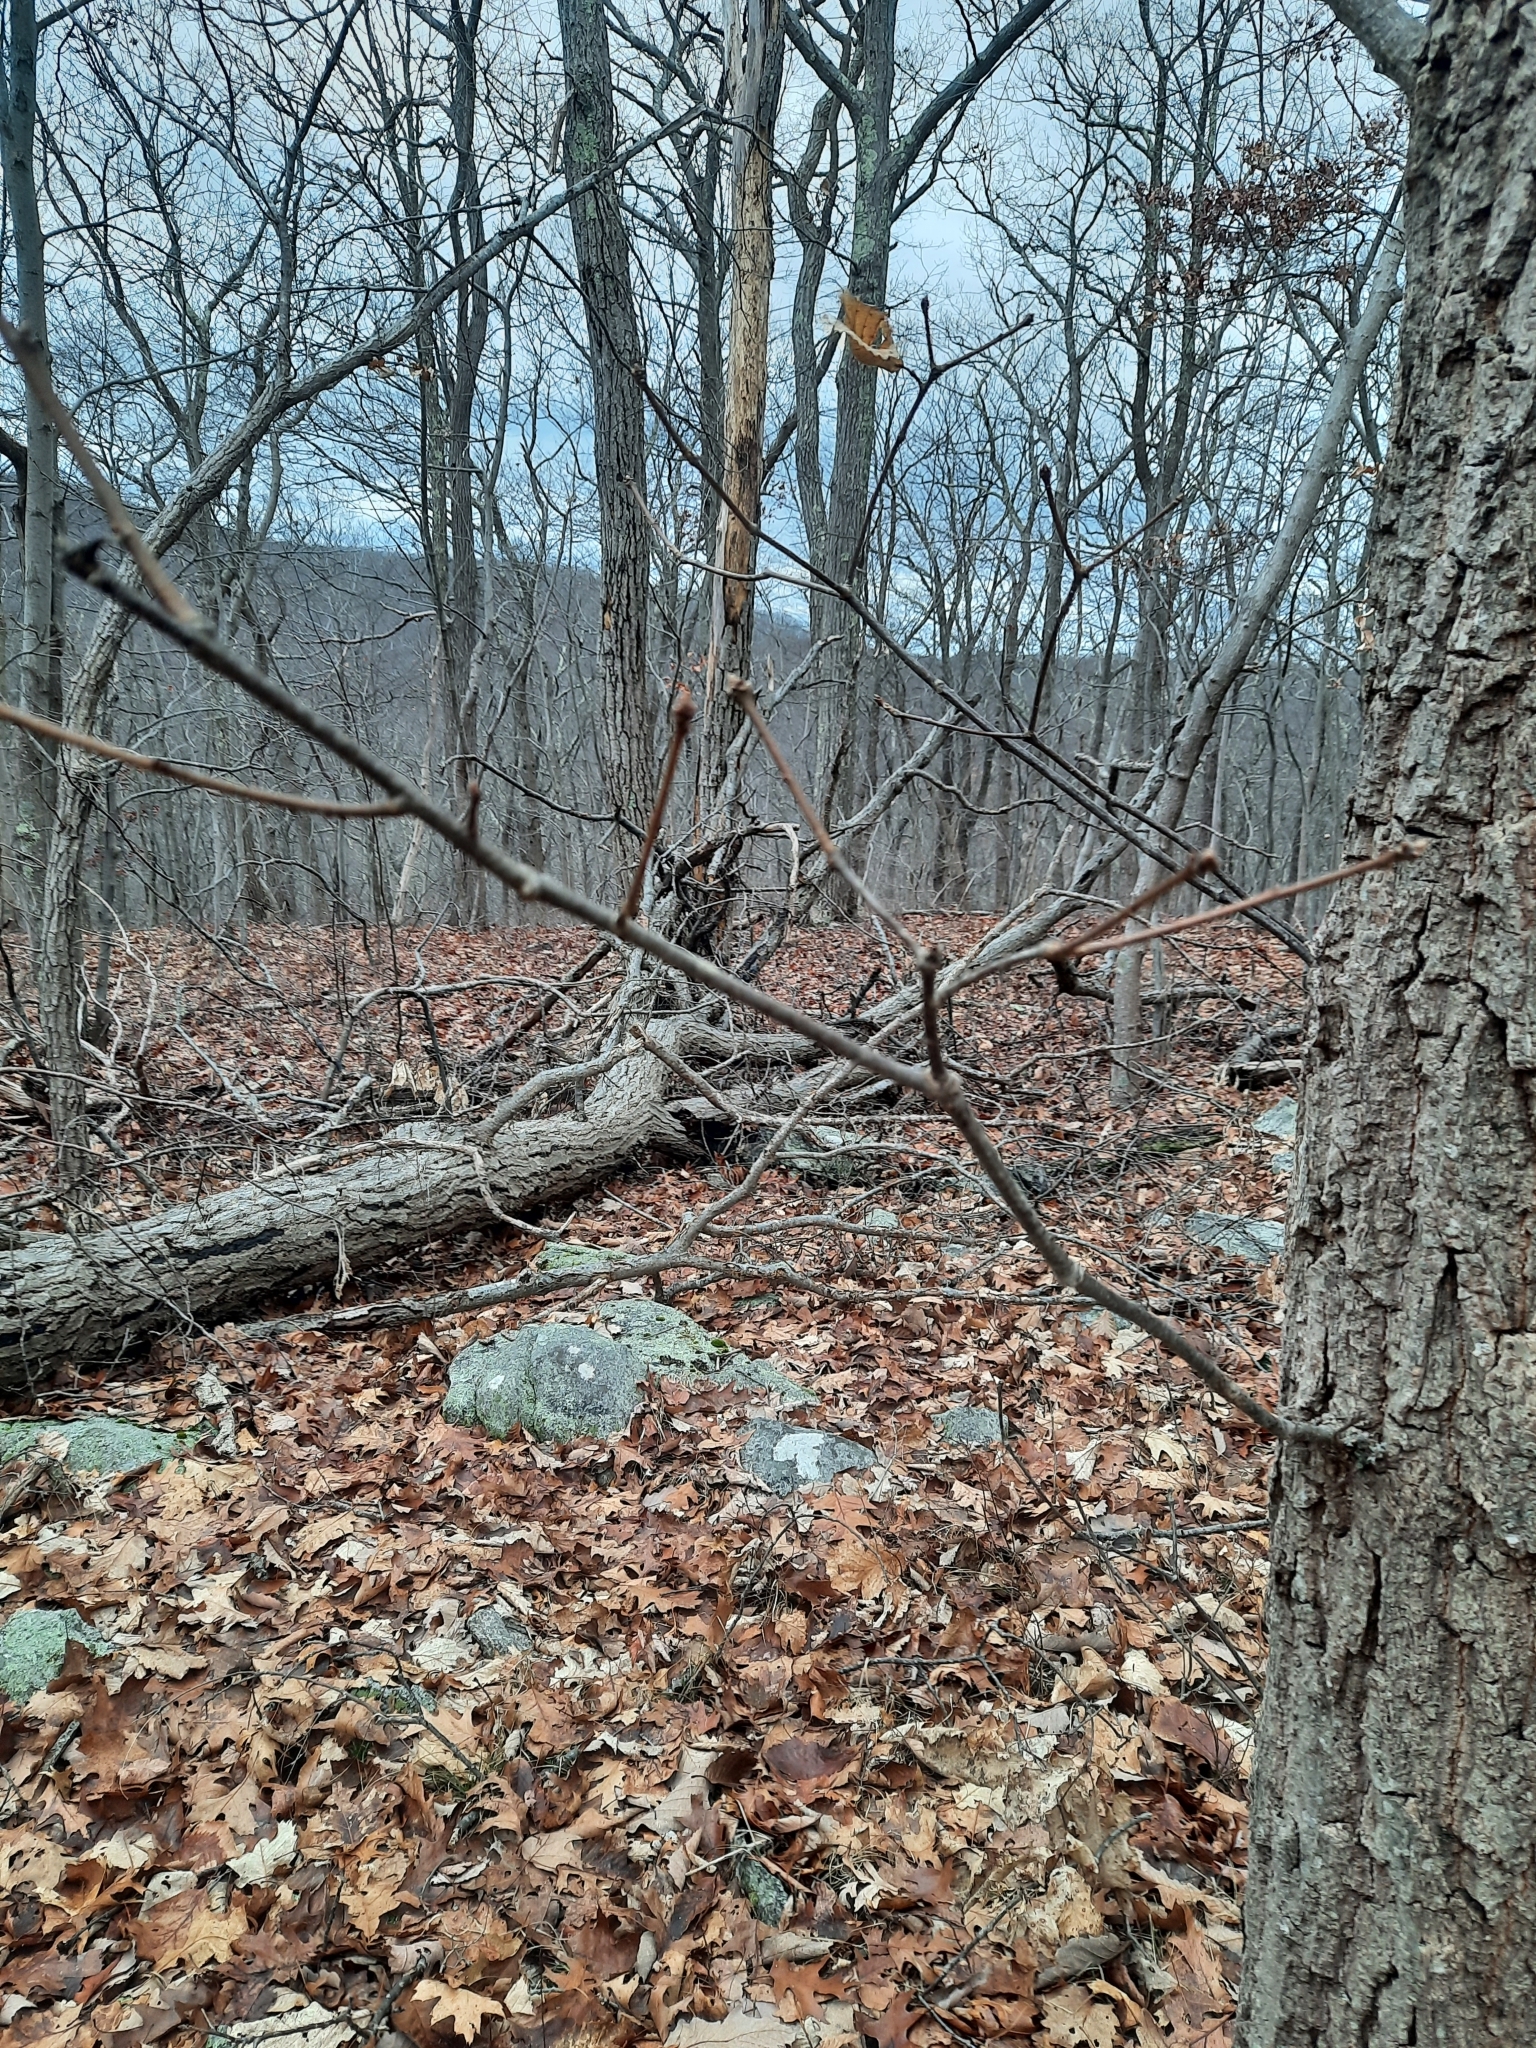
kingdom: Plantae
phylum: Tracheophyta
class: Magnoliopsida
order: Fagales
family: Fagaceae
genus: Quercus
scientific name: Quercus montana
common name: Chestnut oak
